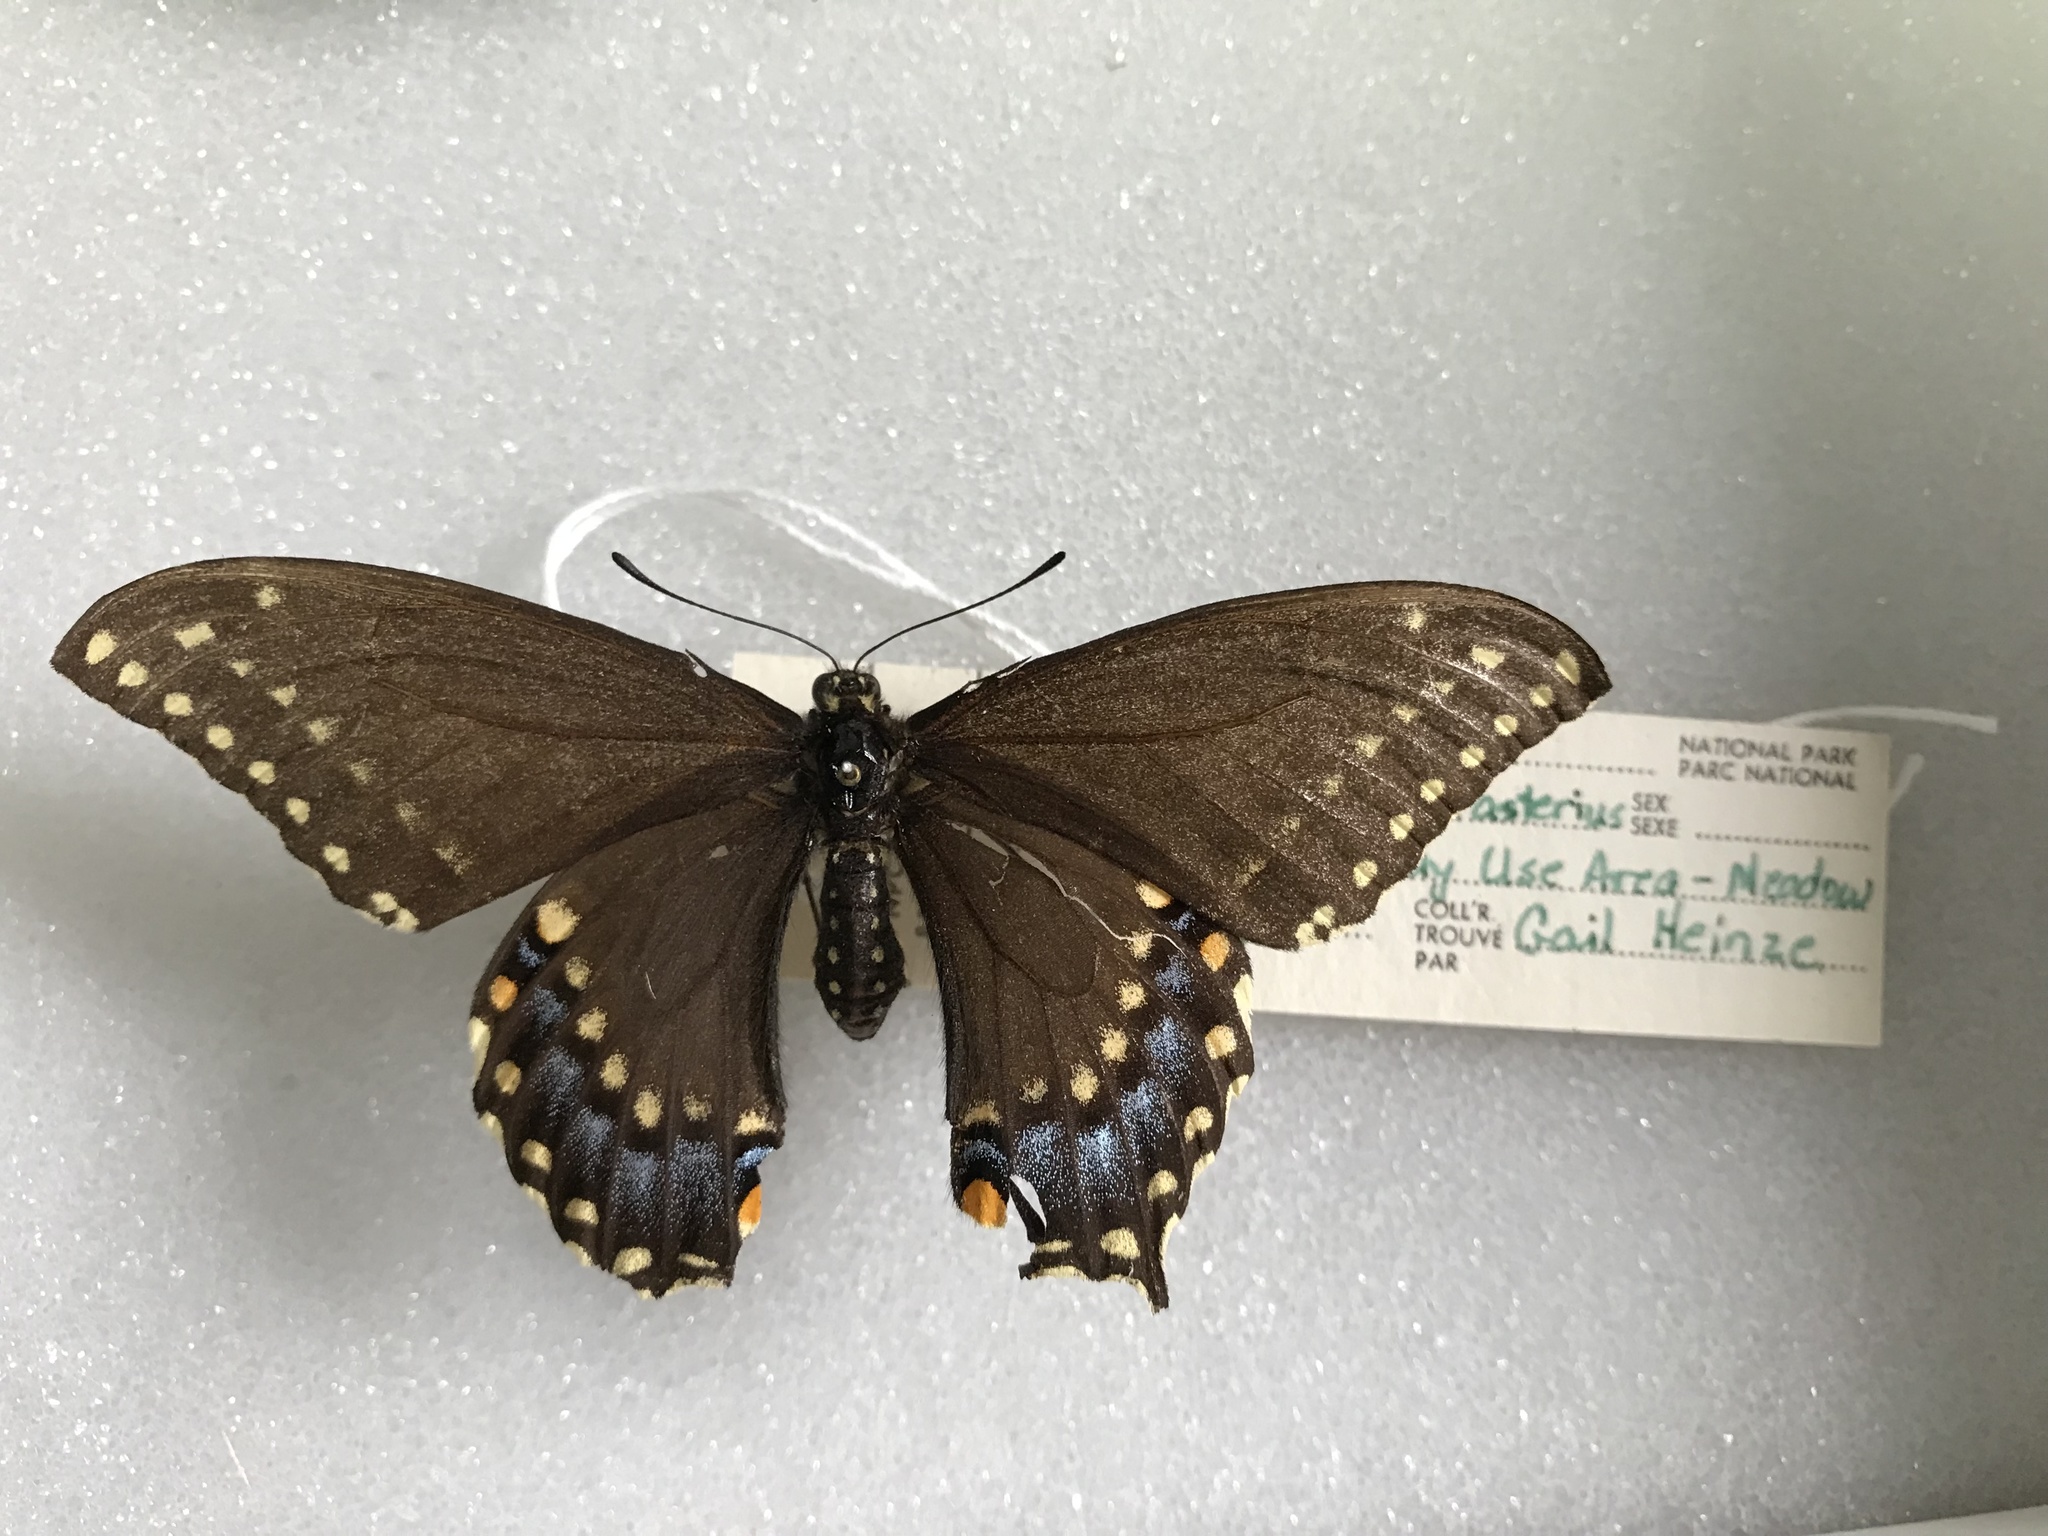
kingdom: Animalia
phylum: Arthropoda
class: Insecta
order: Lepidoptera
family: Papilionidae
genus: Papilio
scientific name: Papilio polyxenes
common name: Black swallowtail
